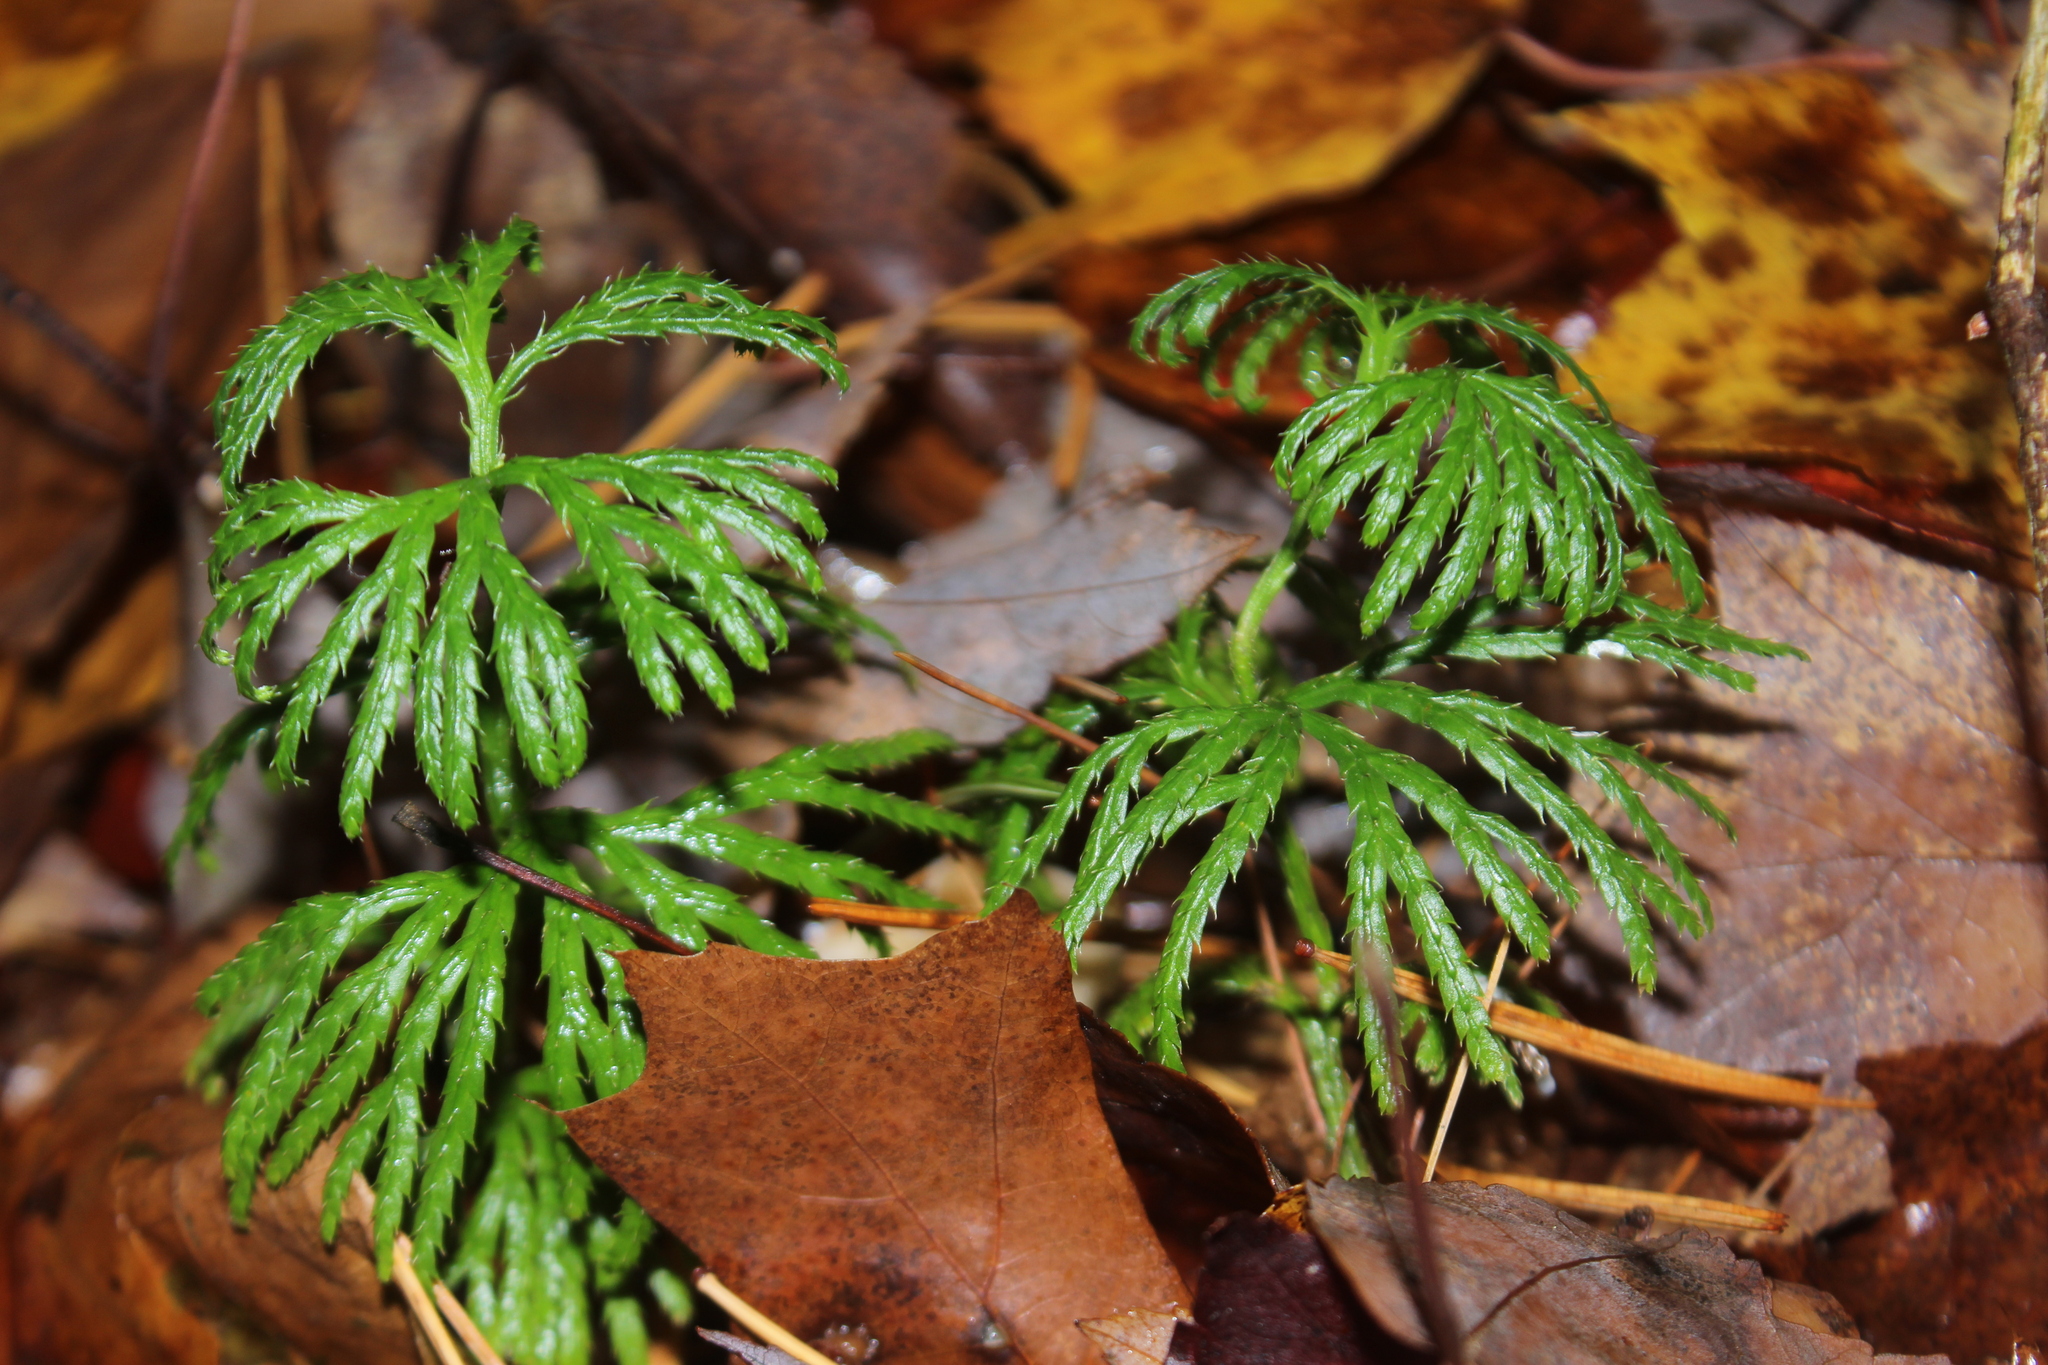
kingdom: Plantae
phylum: Tracheophyta
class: Lycopodiopsida
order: Lycopodiales
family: Lycopodiaceae
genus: Diphasiastrum
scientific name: Diphasiastrum digitatum
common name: Southern running-pine
